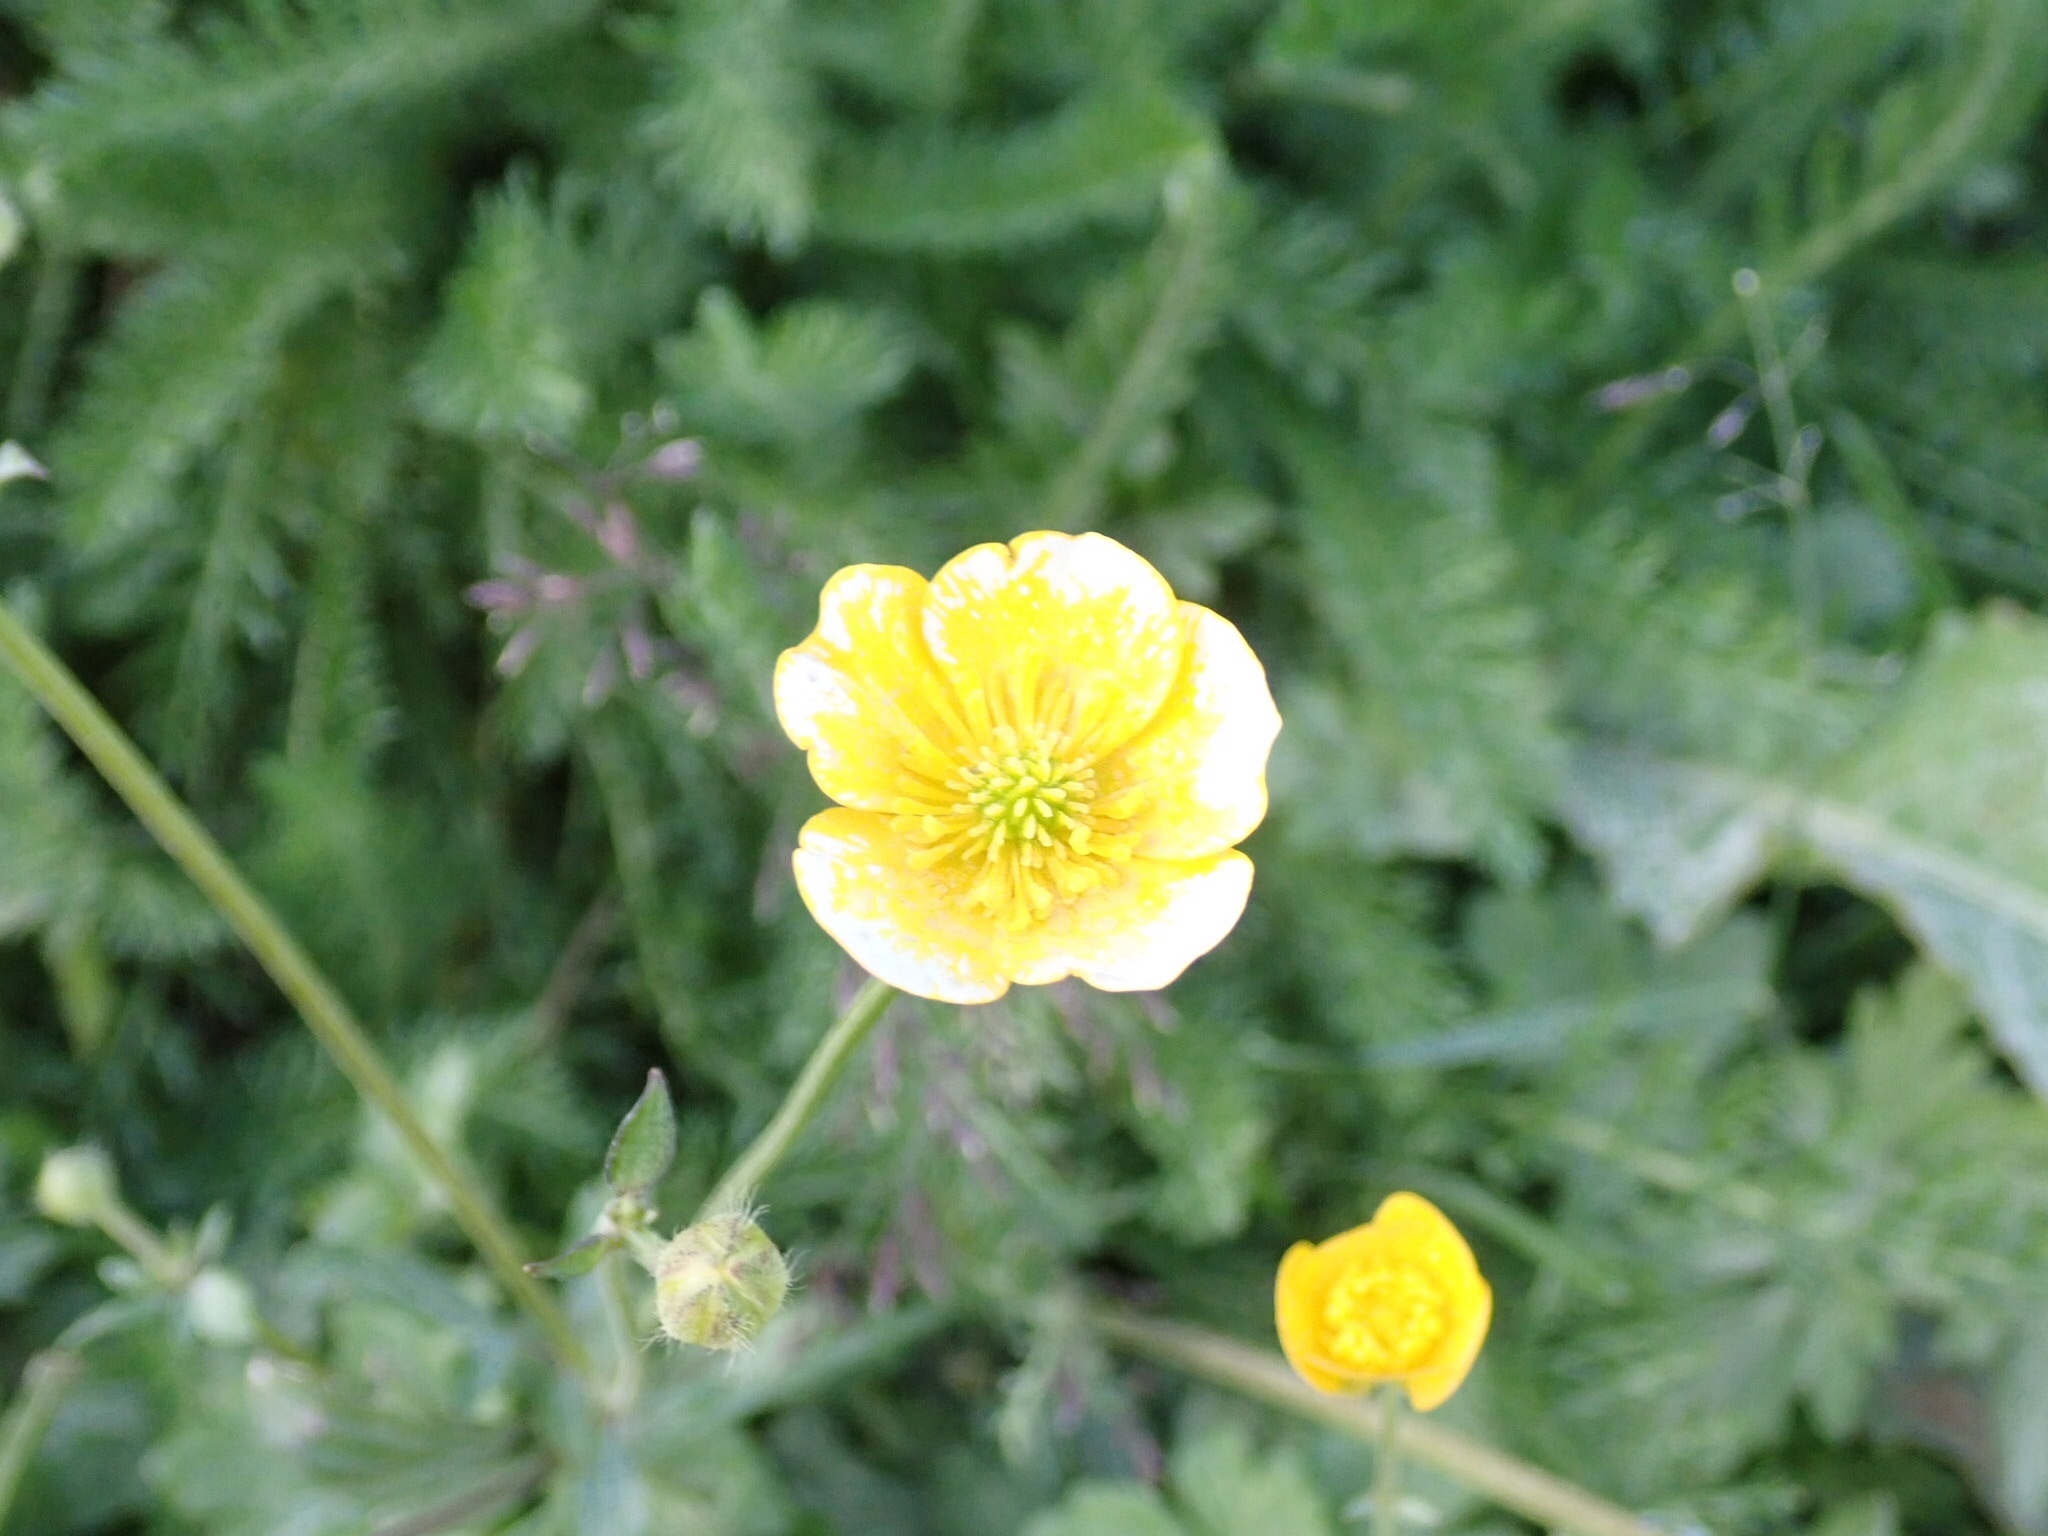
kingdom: Plantae
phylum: Tracheophyta
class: Magnoliopsida
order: Ranunculales
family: Ranunculaceae
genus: Ranunculus
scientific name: Ranunculus repens
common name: Creeping buttercup
